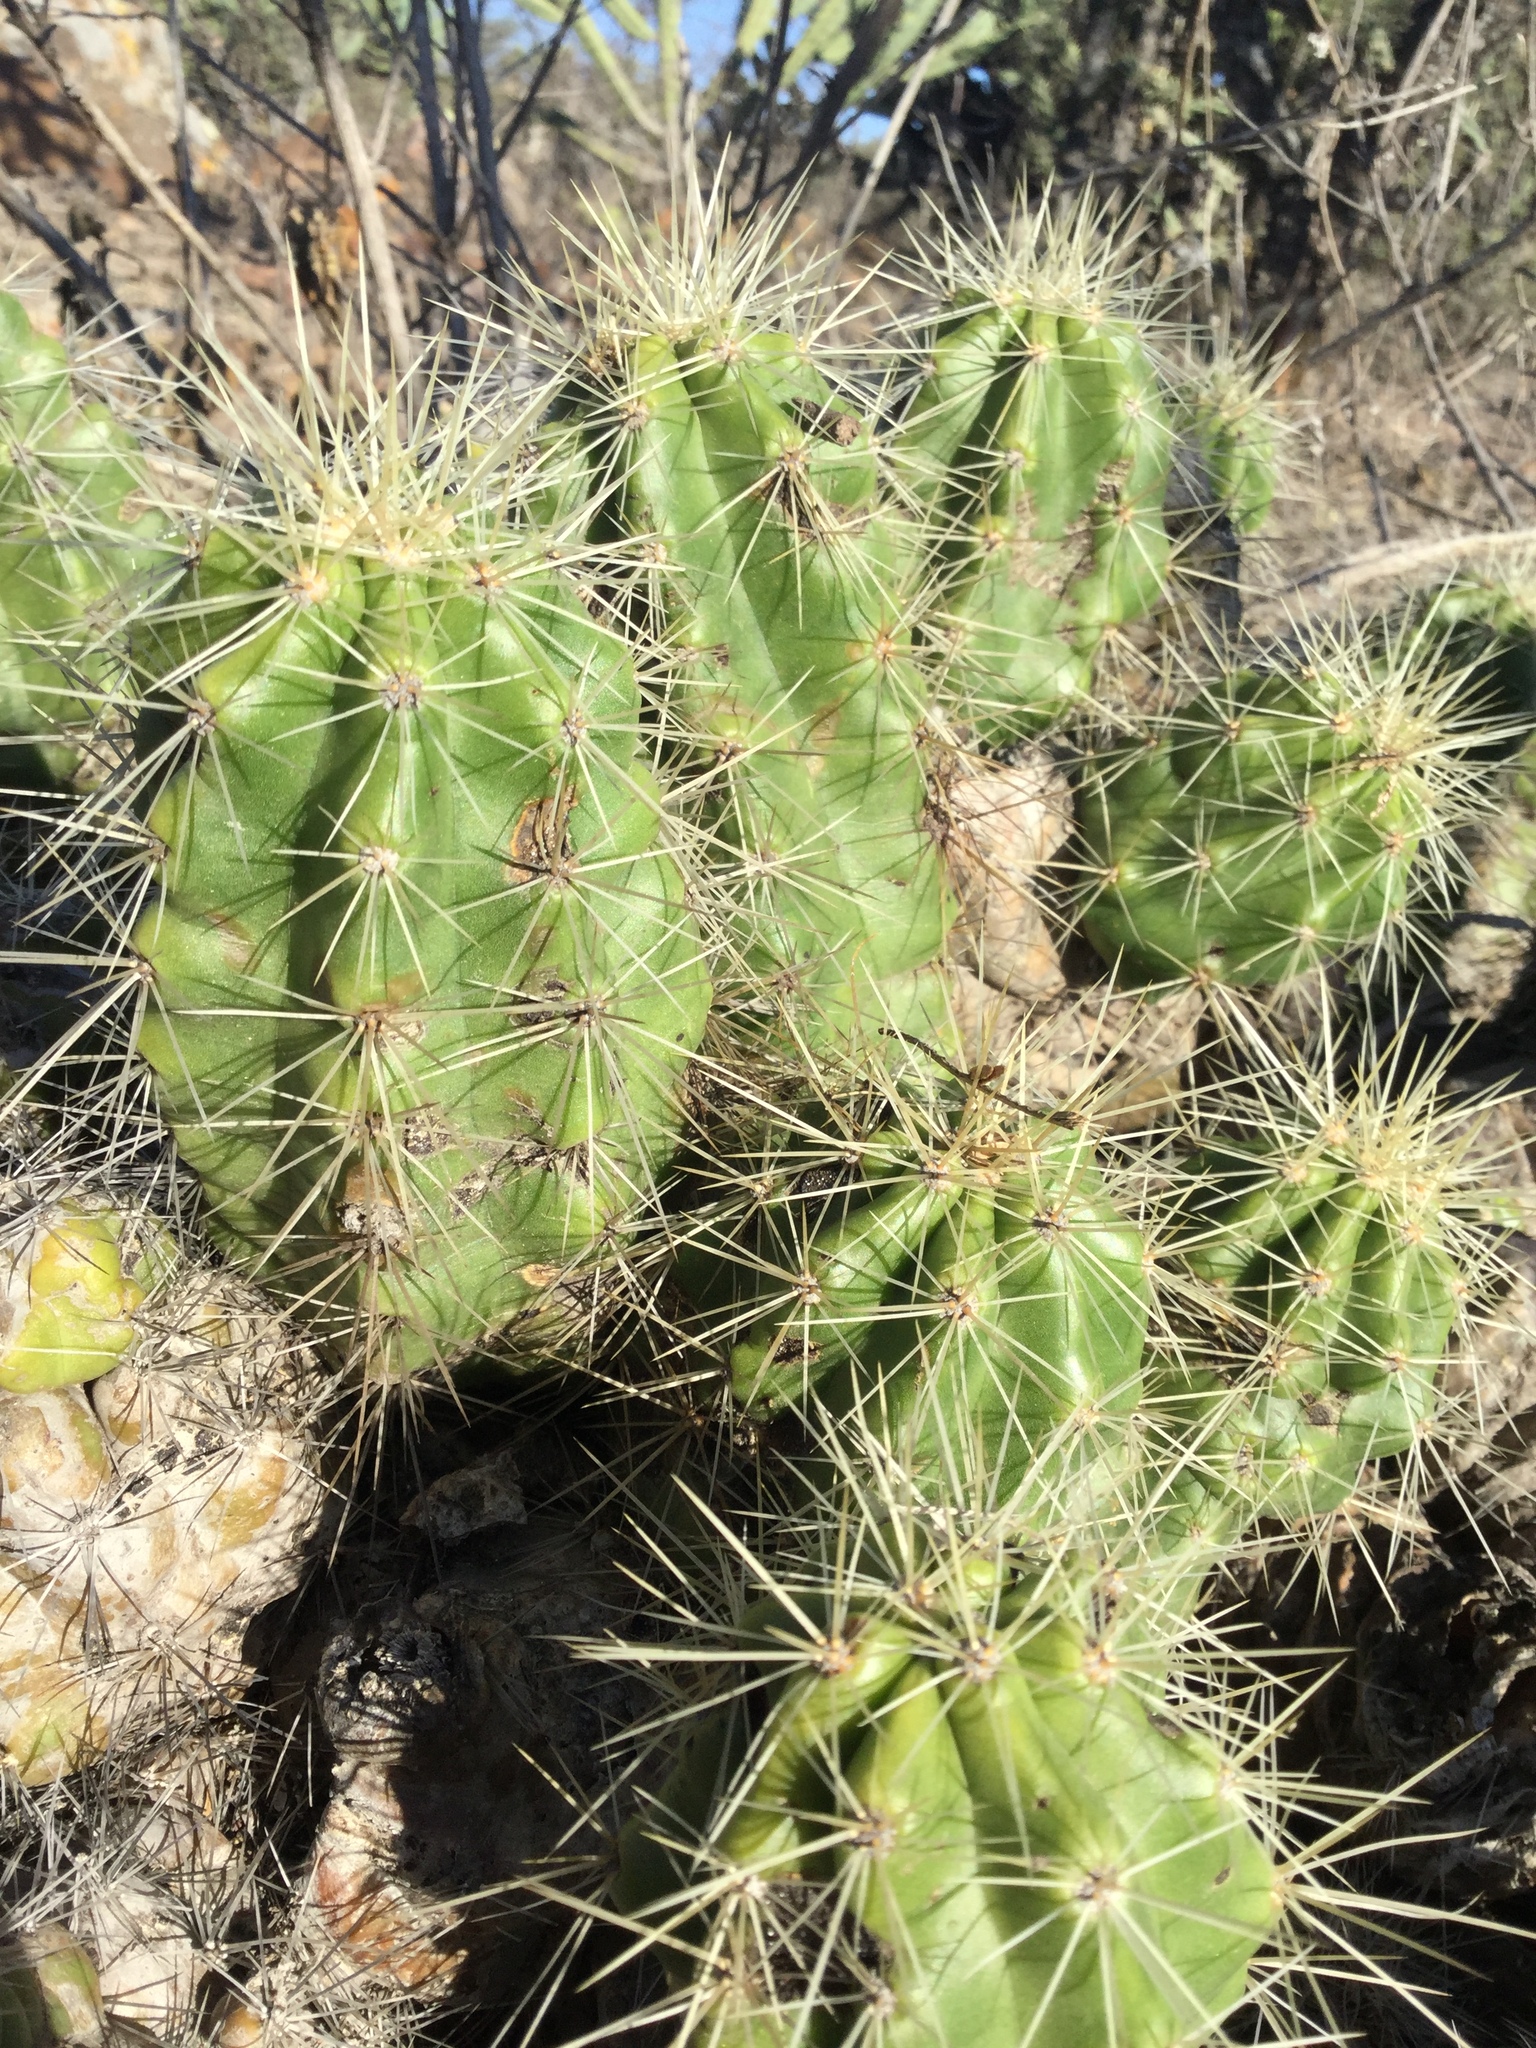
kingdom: Plantae
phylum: Tracheophyta
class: Magnoliopsida
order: Caryophyllales
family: Cactaceae
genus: Echinocereus
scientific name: Echinocereus cinerascens
